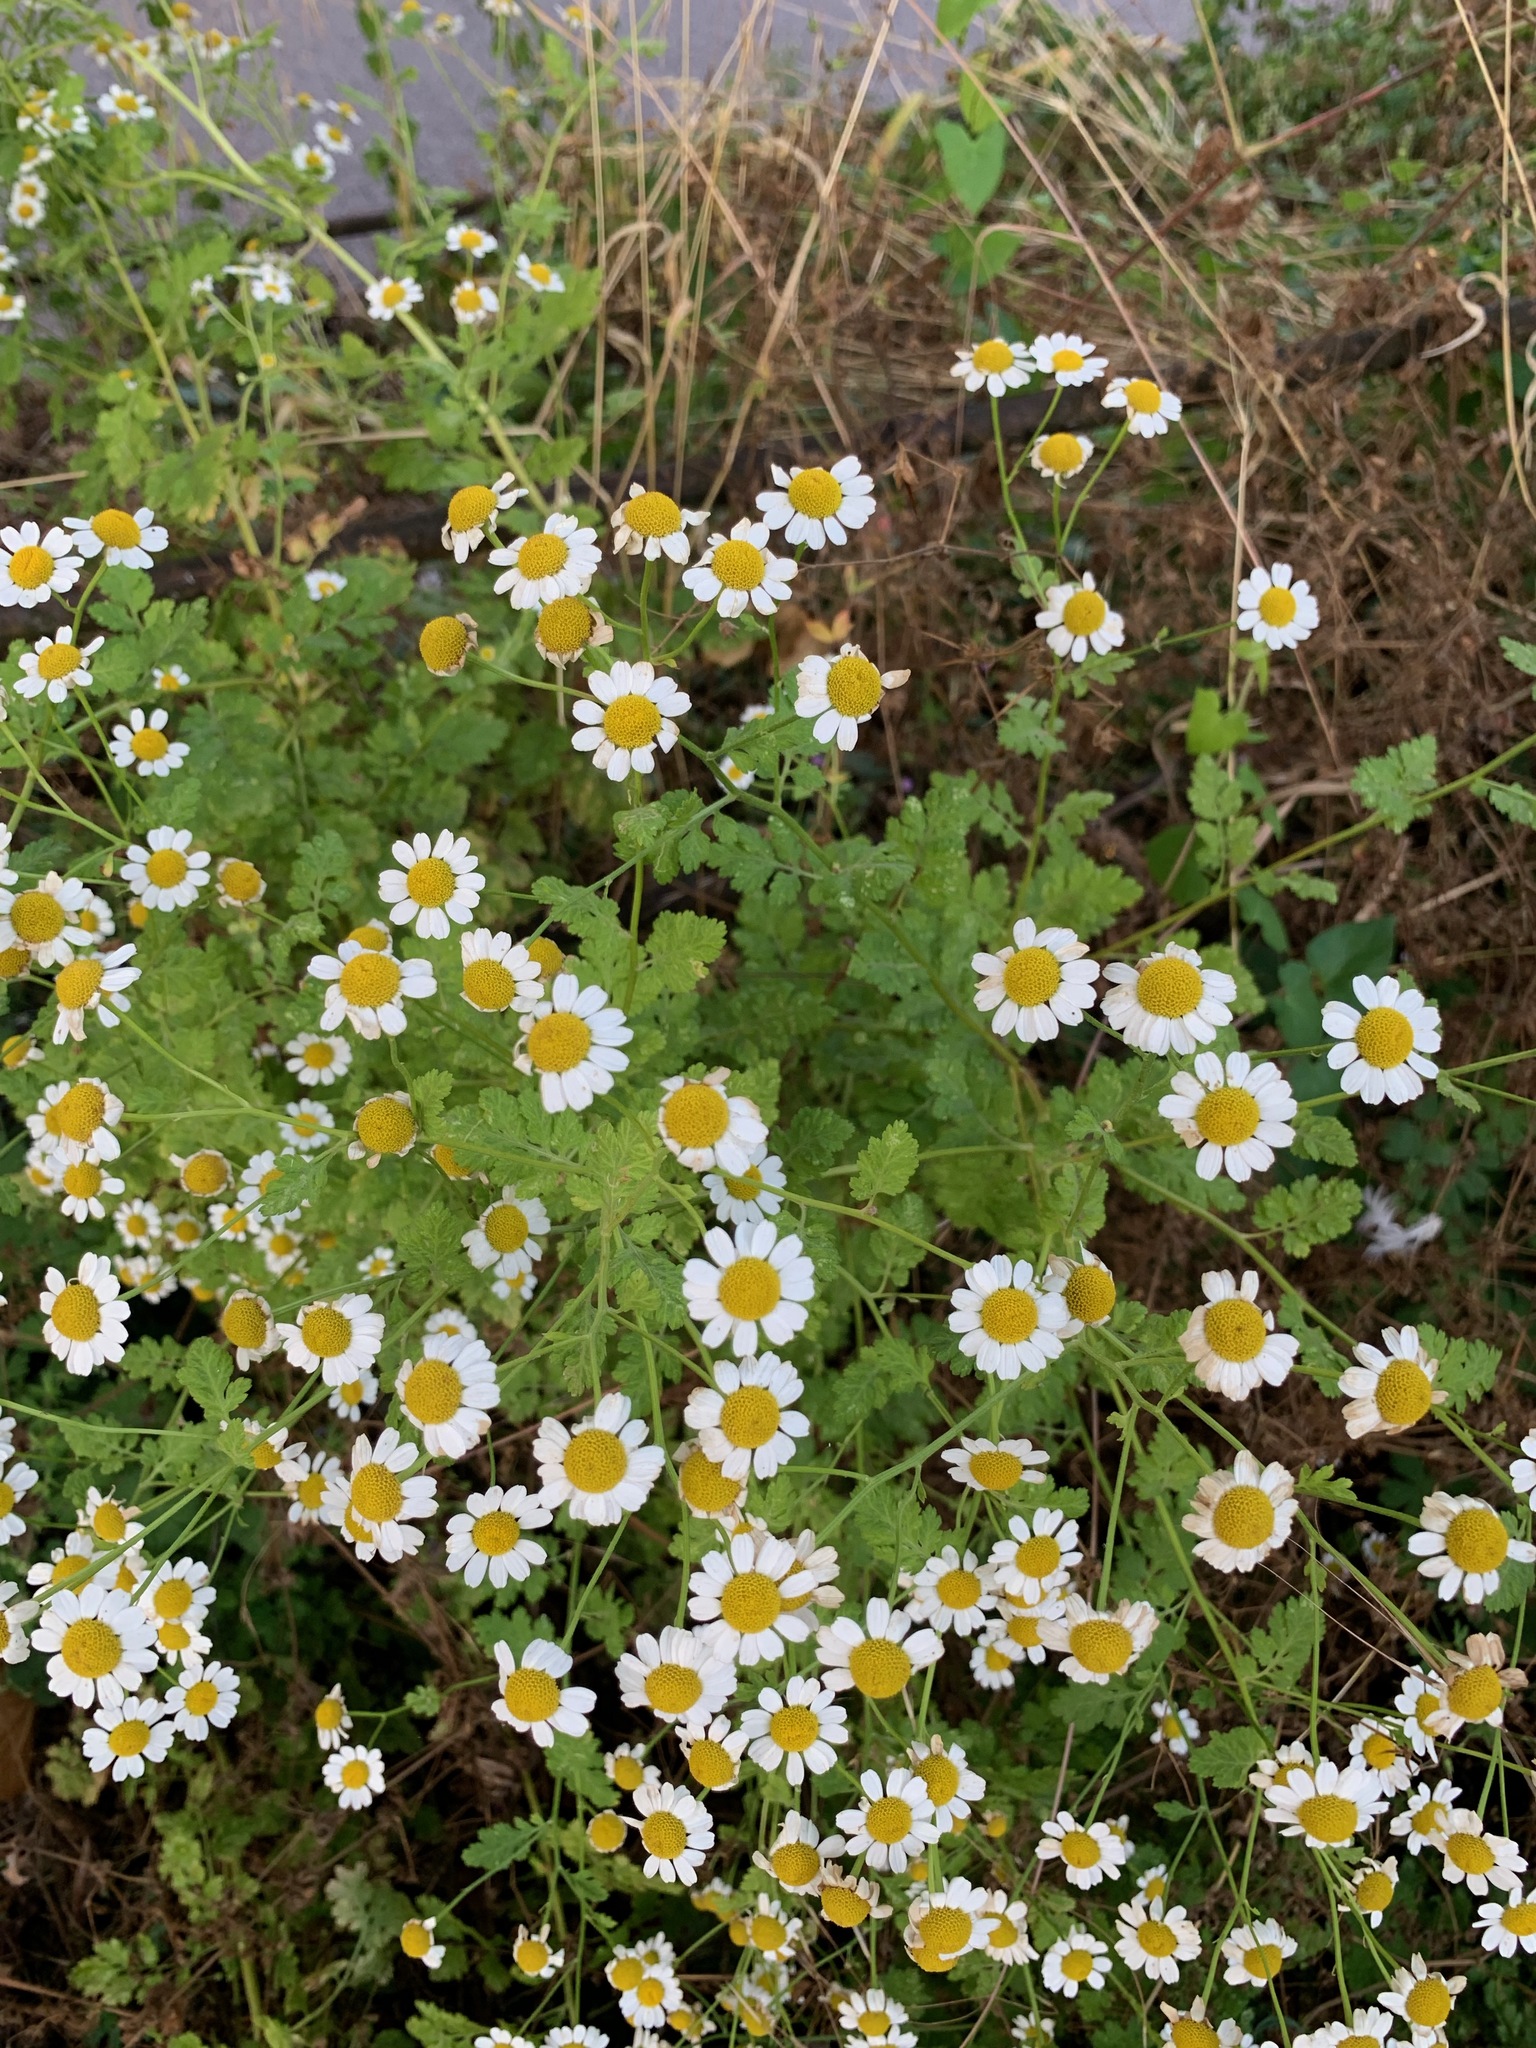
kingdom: Plantae
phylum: Tracheophyta
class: Magnoliopsida
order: Asterales
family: Asteraceae
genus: Tanacetum
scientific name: Tanacetum parthenium
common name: Feverfew
